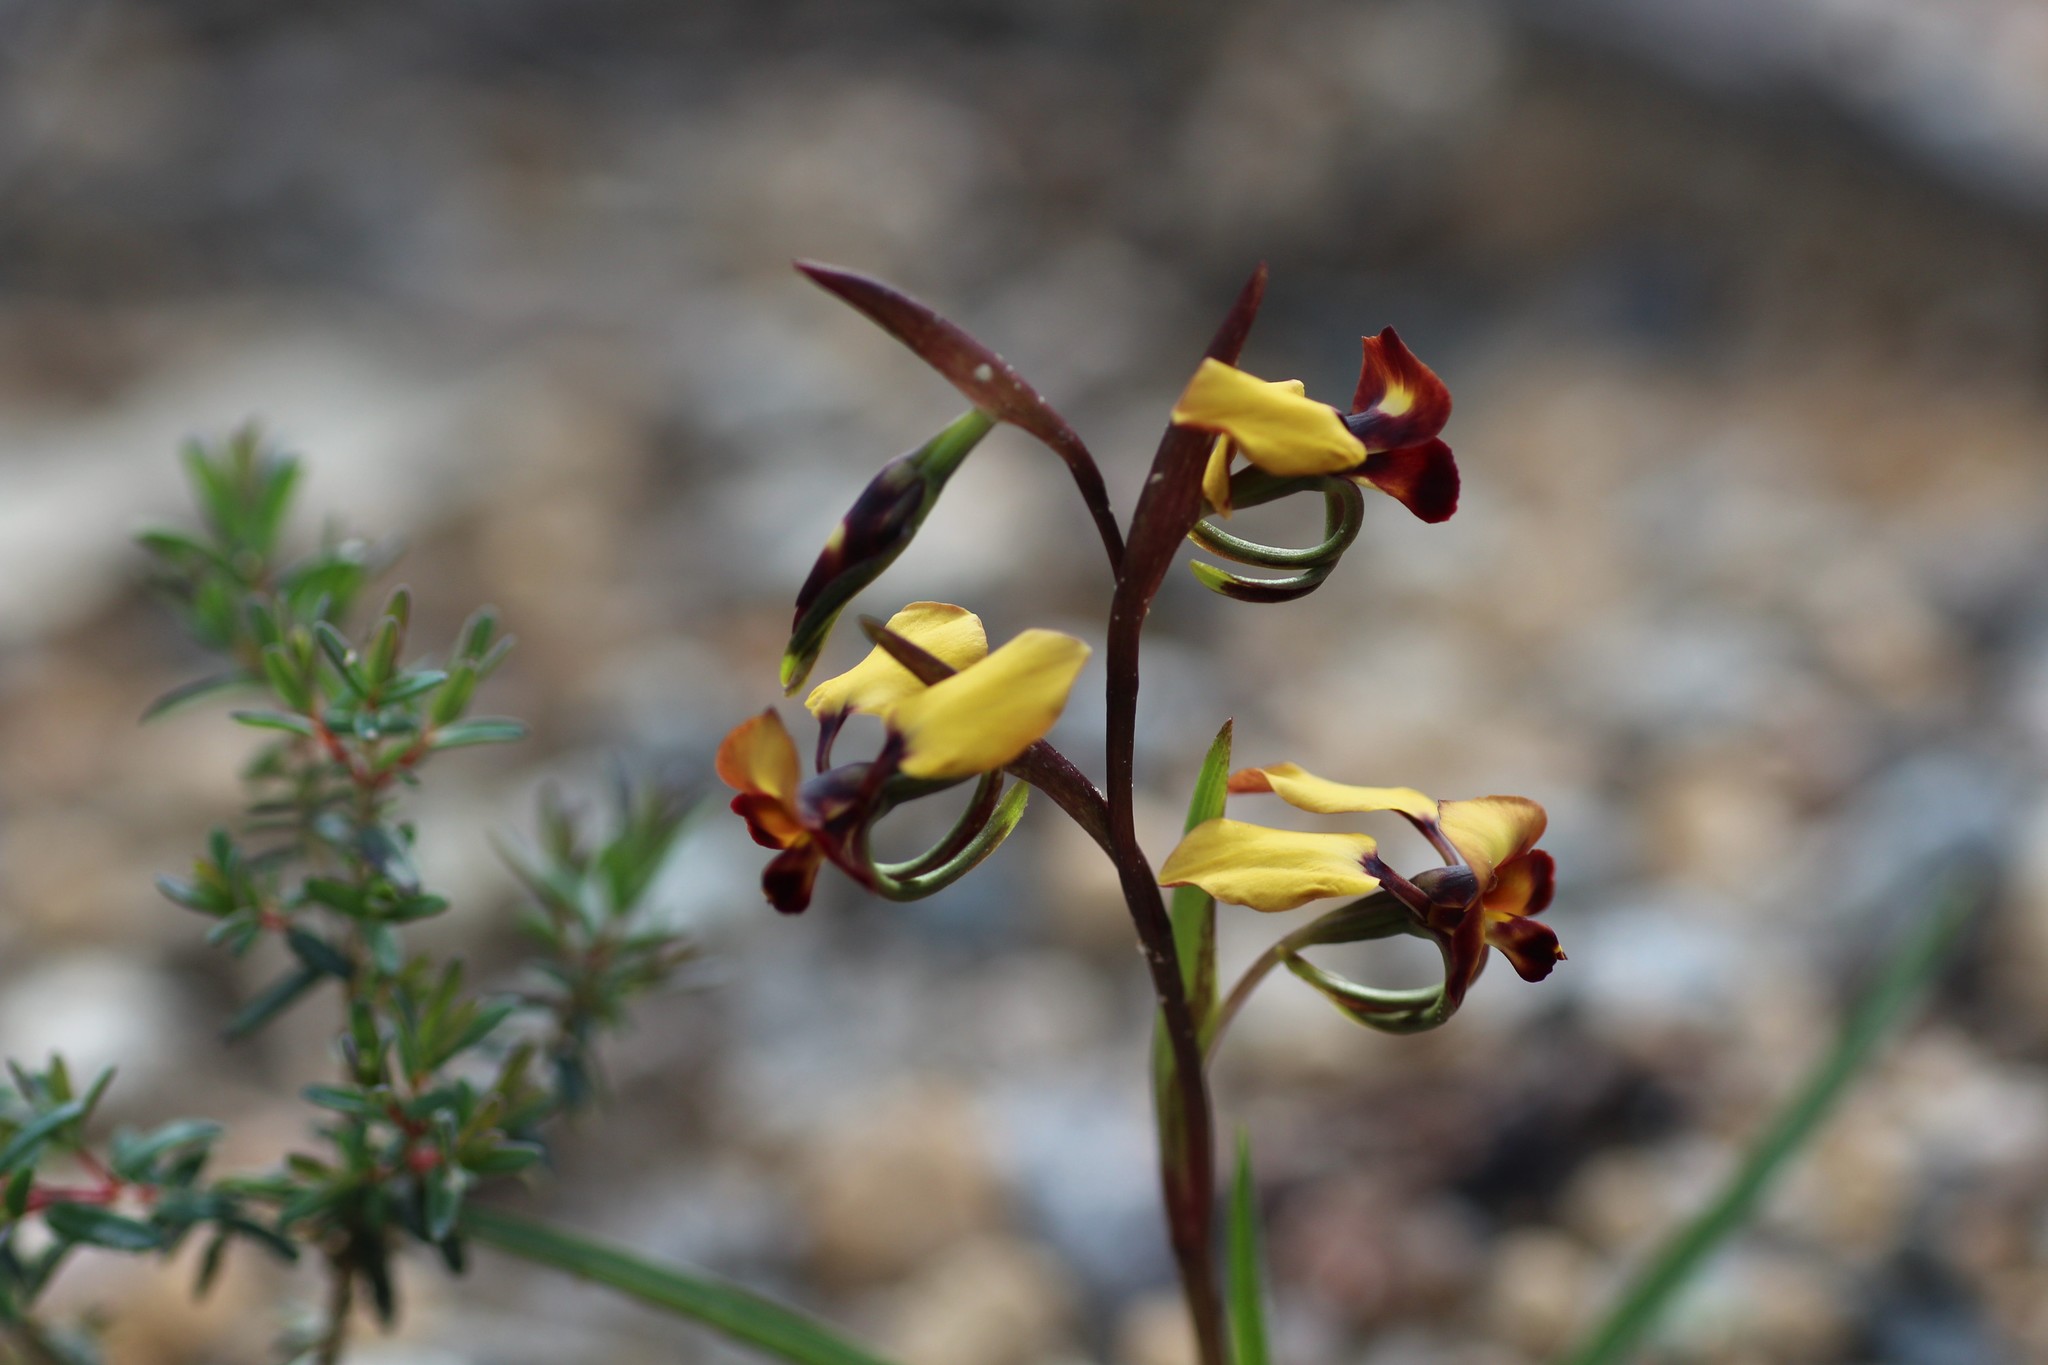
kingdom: Plantae
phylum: Tracheophyta
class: Liliopsida
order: Asparagales
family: Orchidaceae
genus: Diuris
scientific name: Diuris porrifolia
